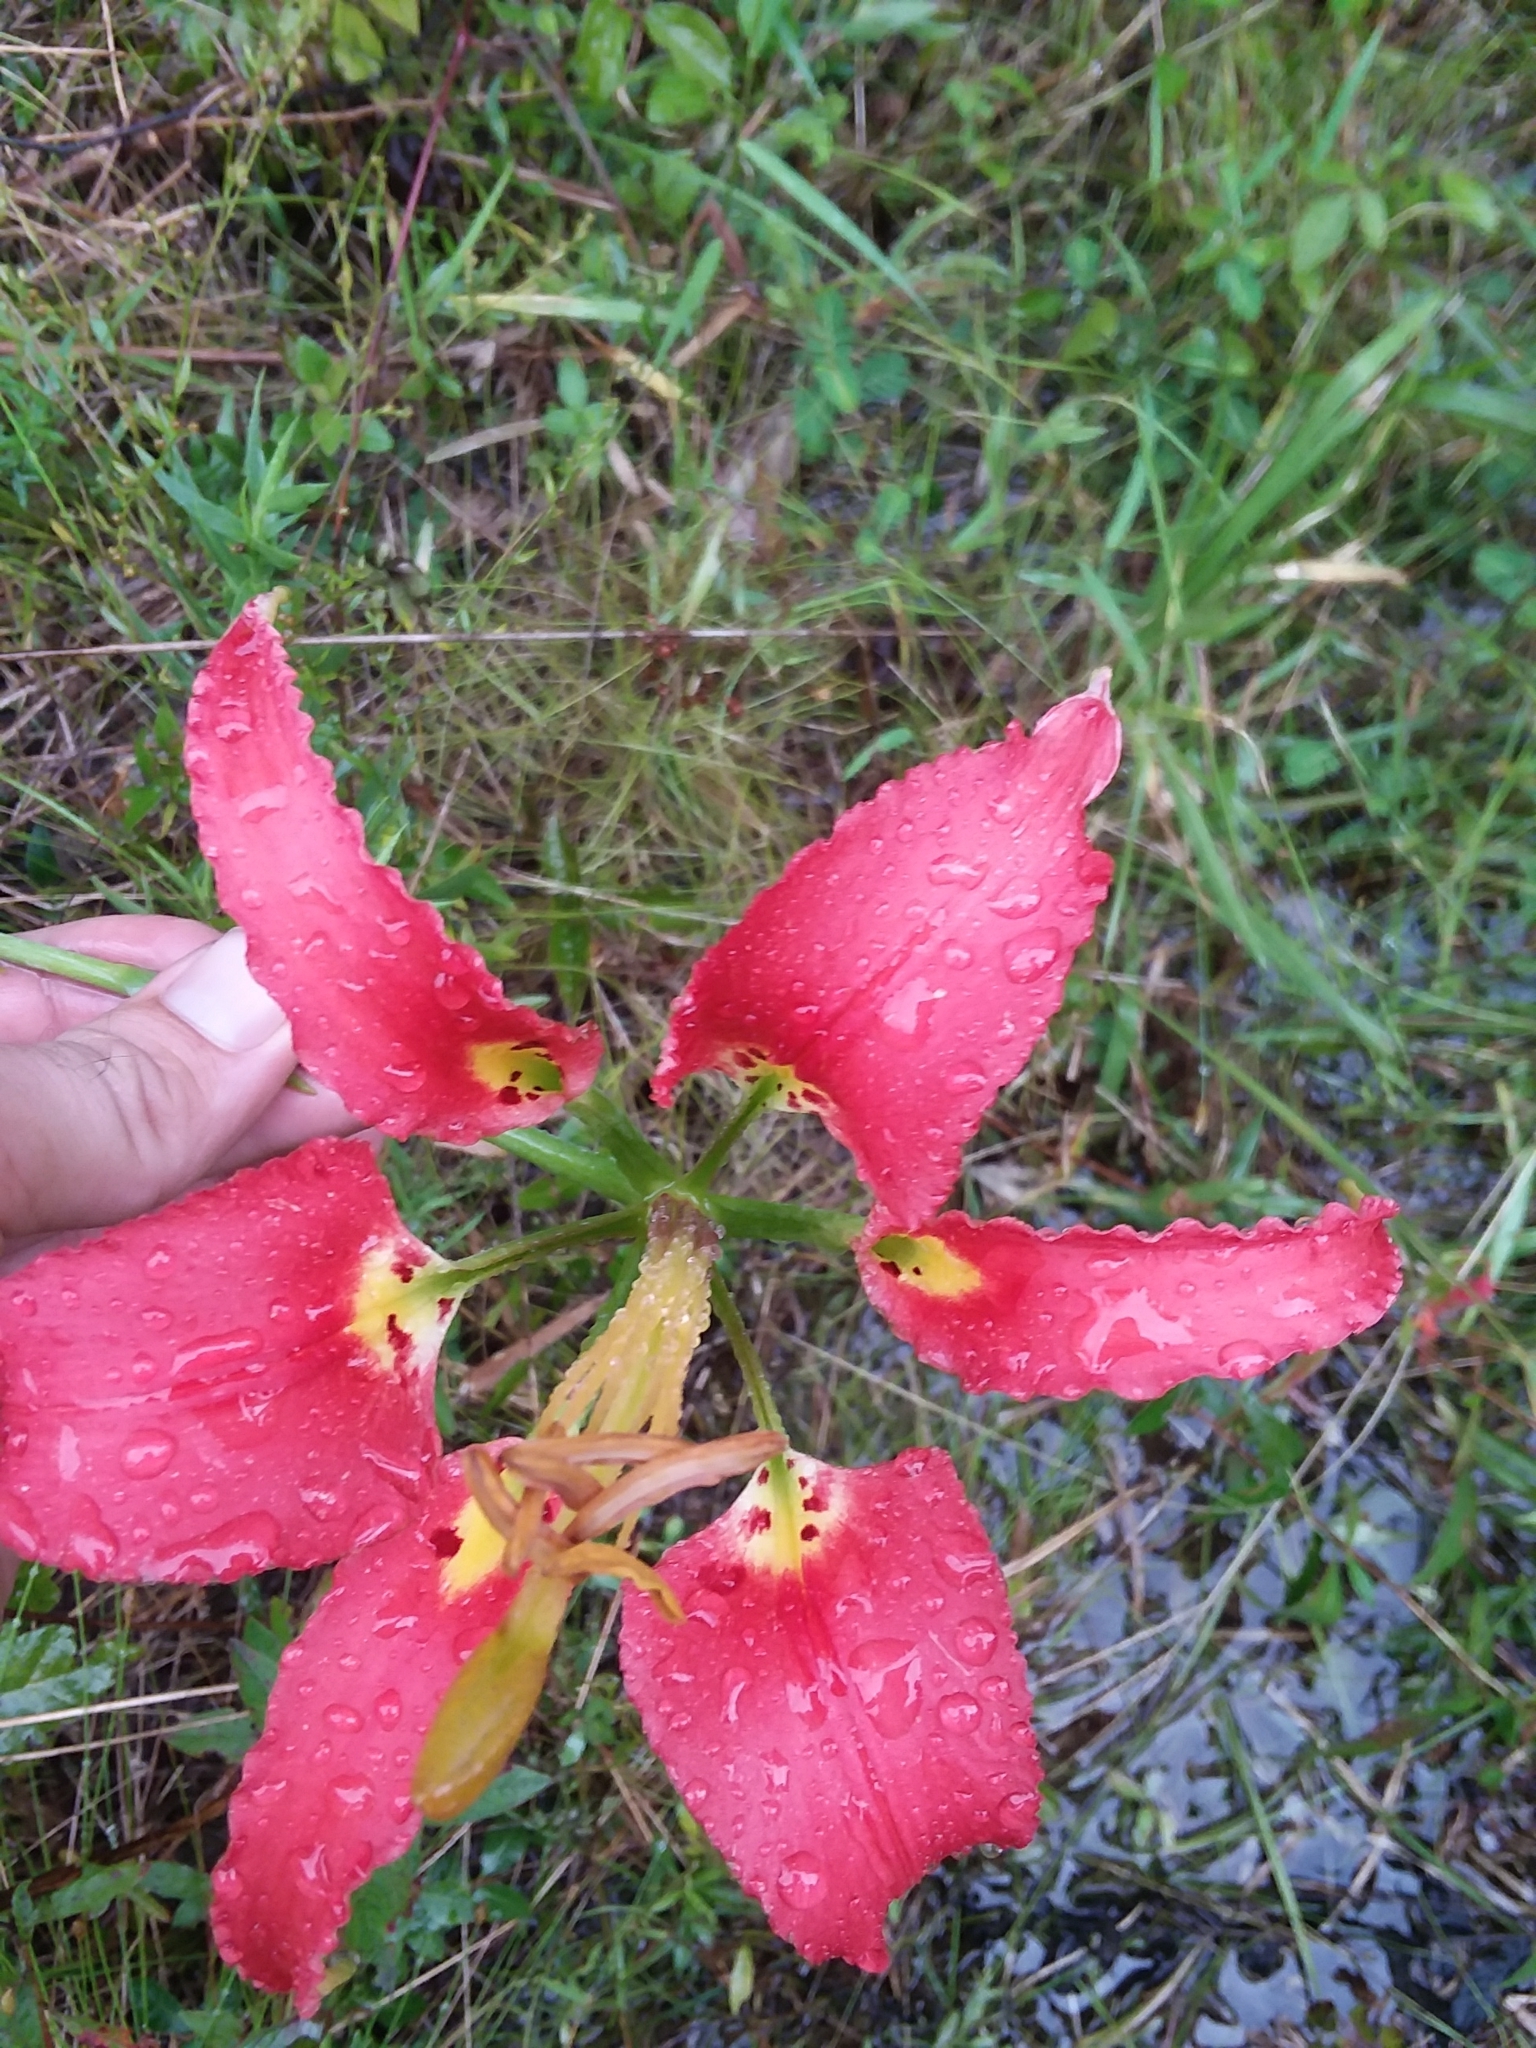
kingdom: Plantae
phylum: Tracheophyta
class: Liliopsida
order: Liliales
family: Liliaceae
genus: Lilium
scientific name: Lilium catesbaei
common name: Catesby's lily
